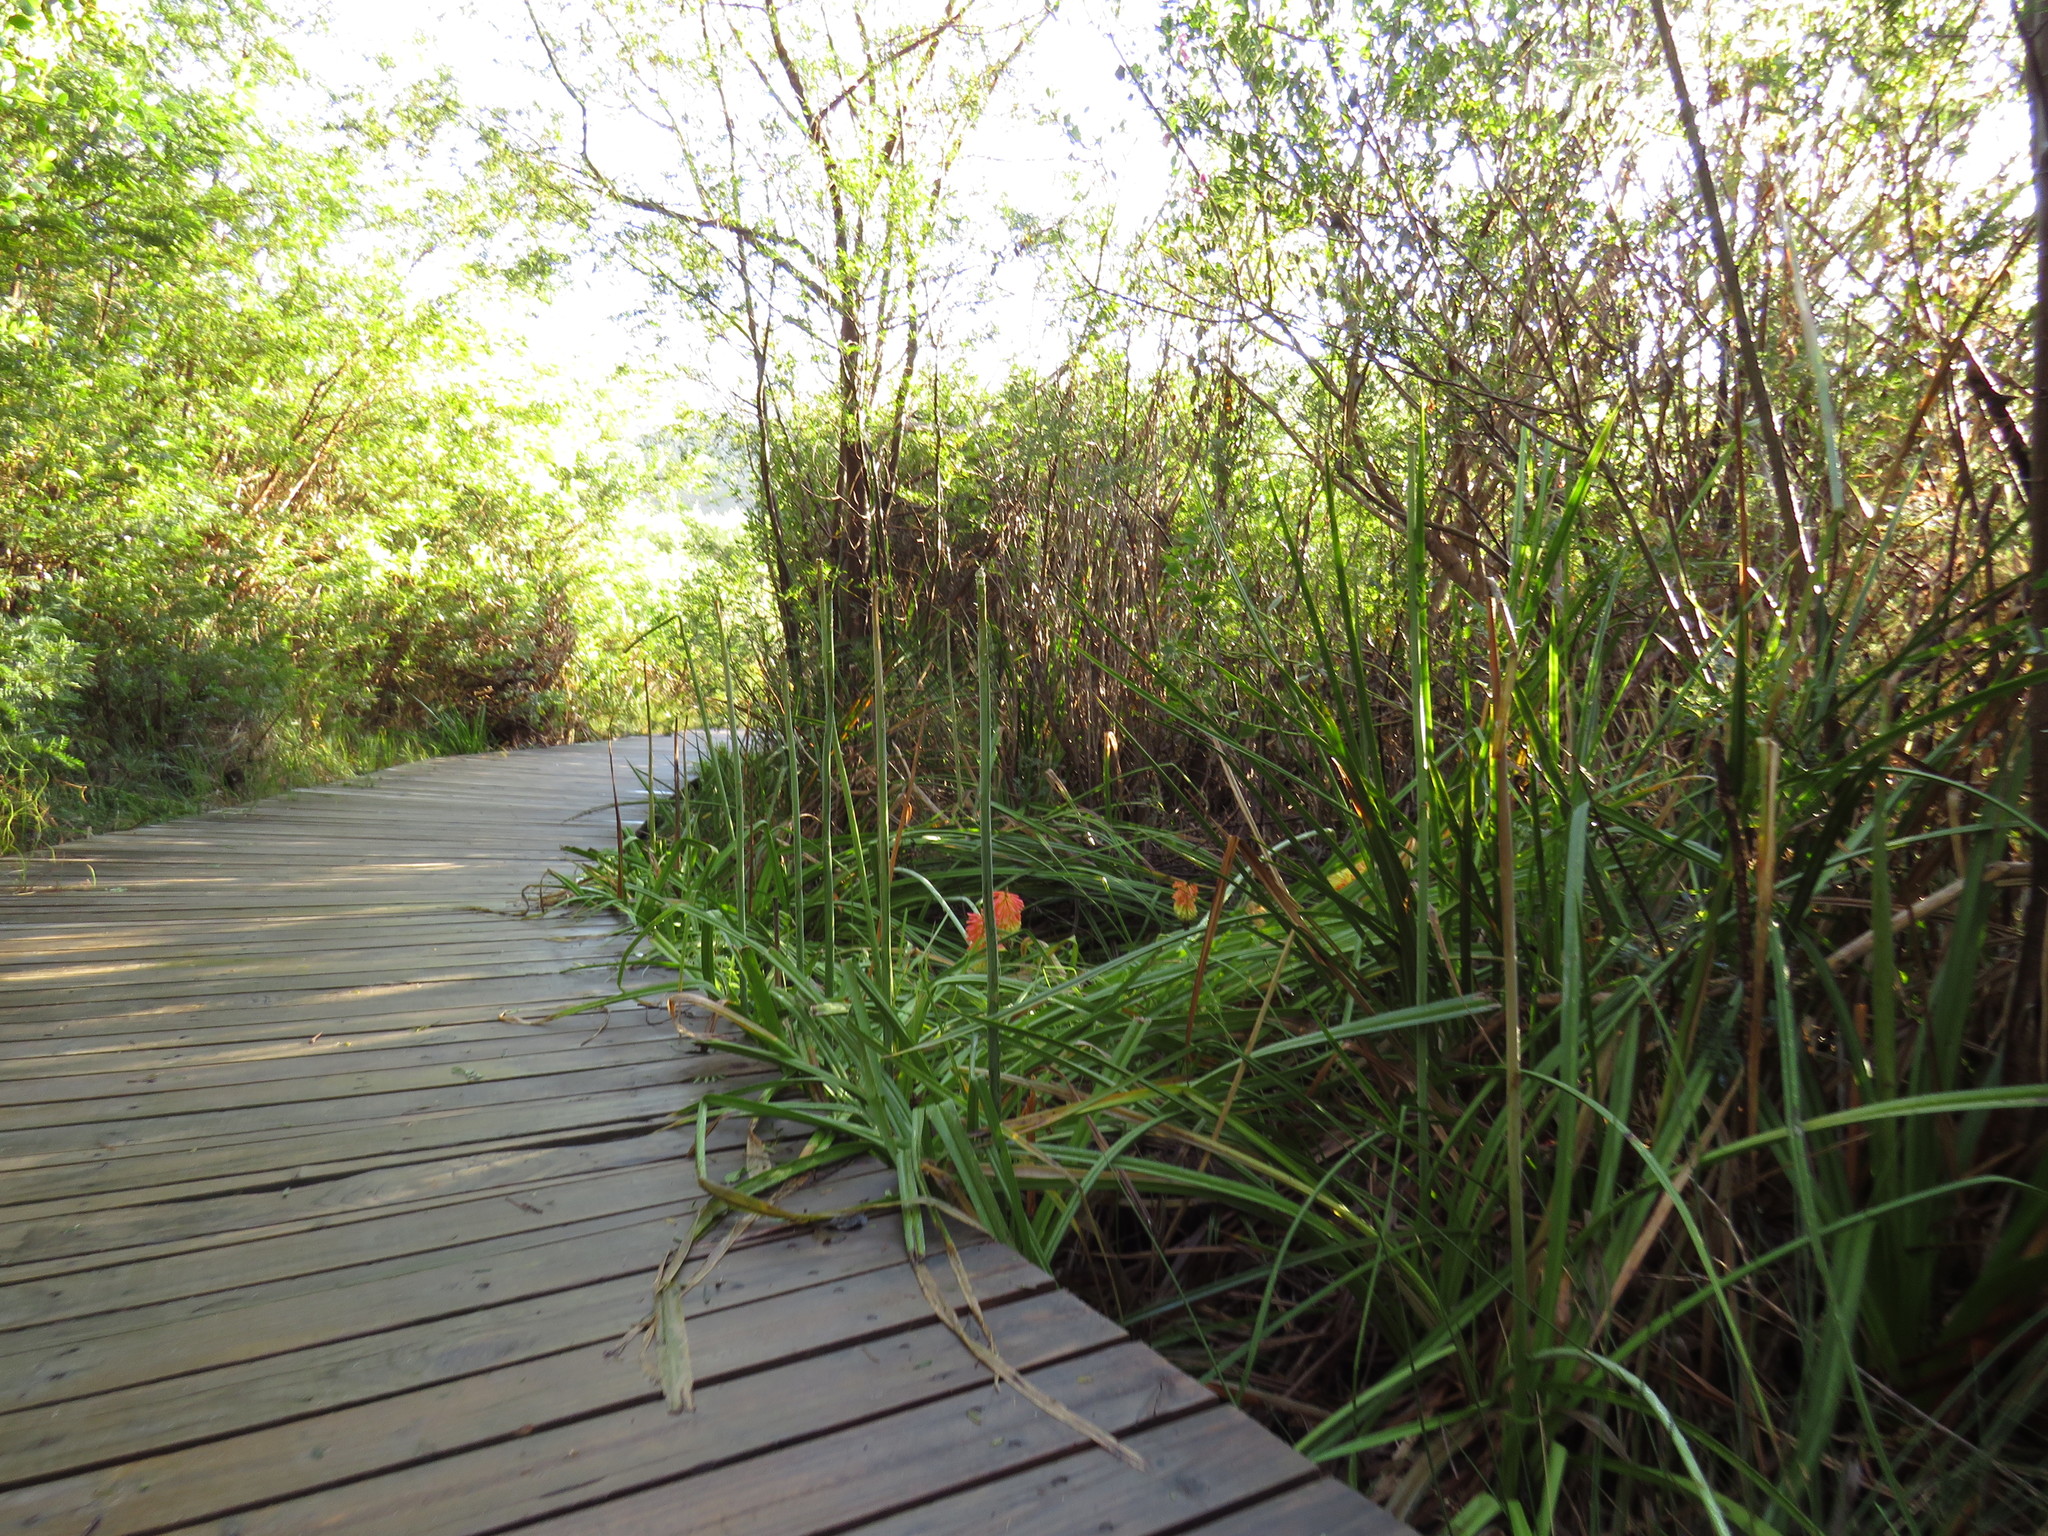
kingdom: Plantae
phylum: Tracheophyta
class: Liliopsida
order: Asparagales
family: Asphodelaceae
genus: Kniphofia
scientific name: Kniphofia uvaria
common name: Red-hot-poker
